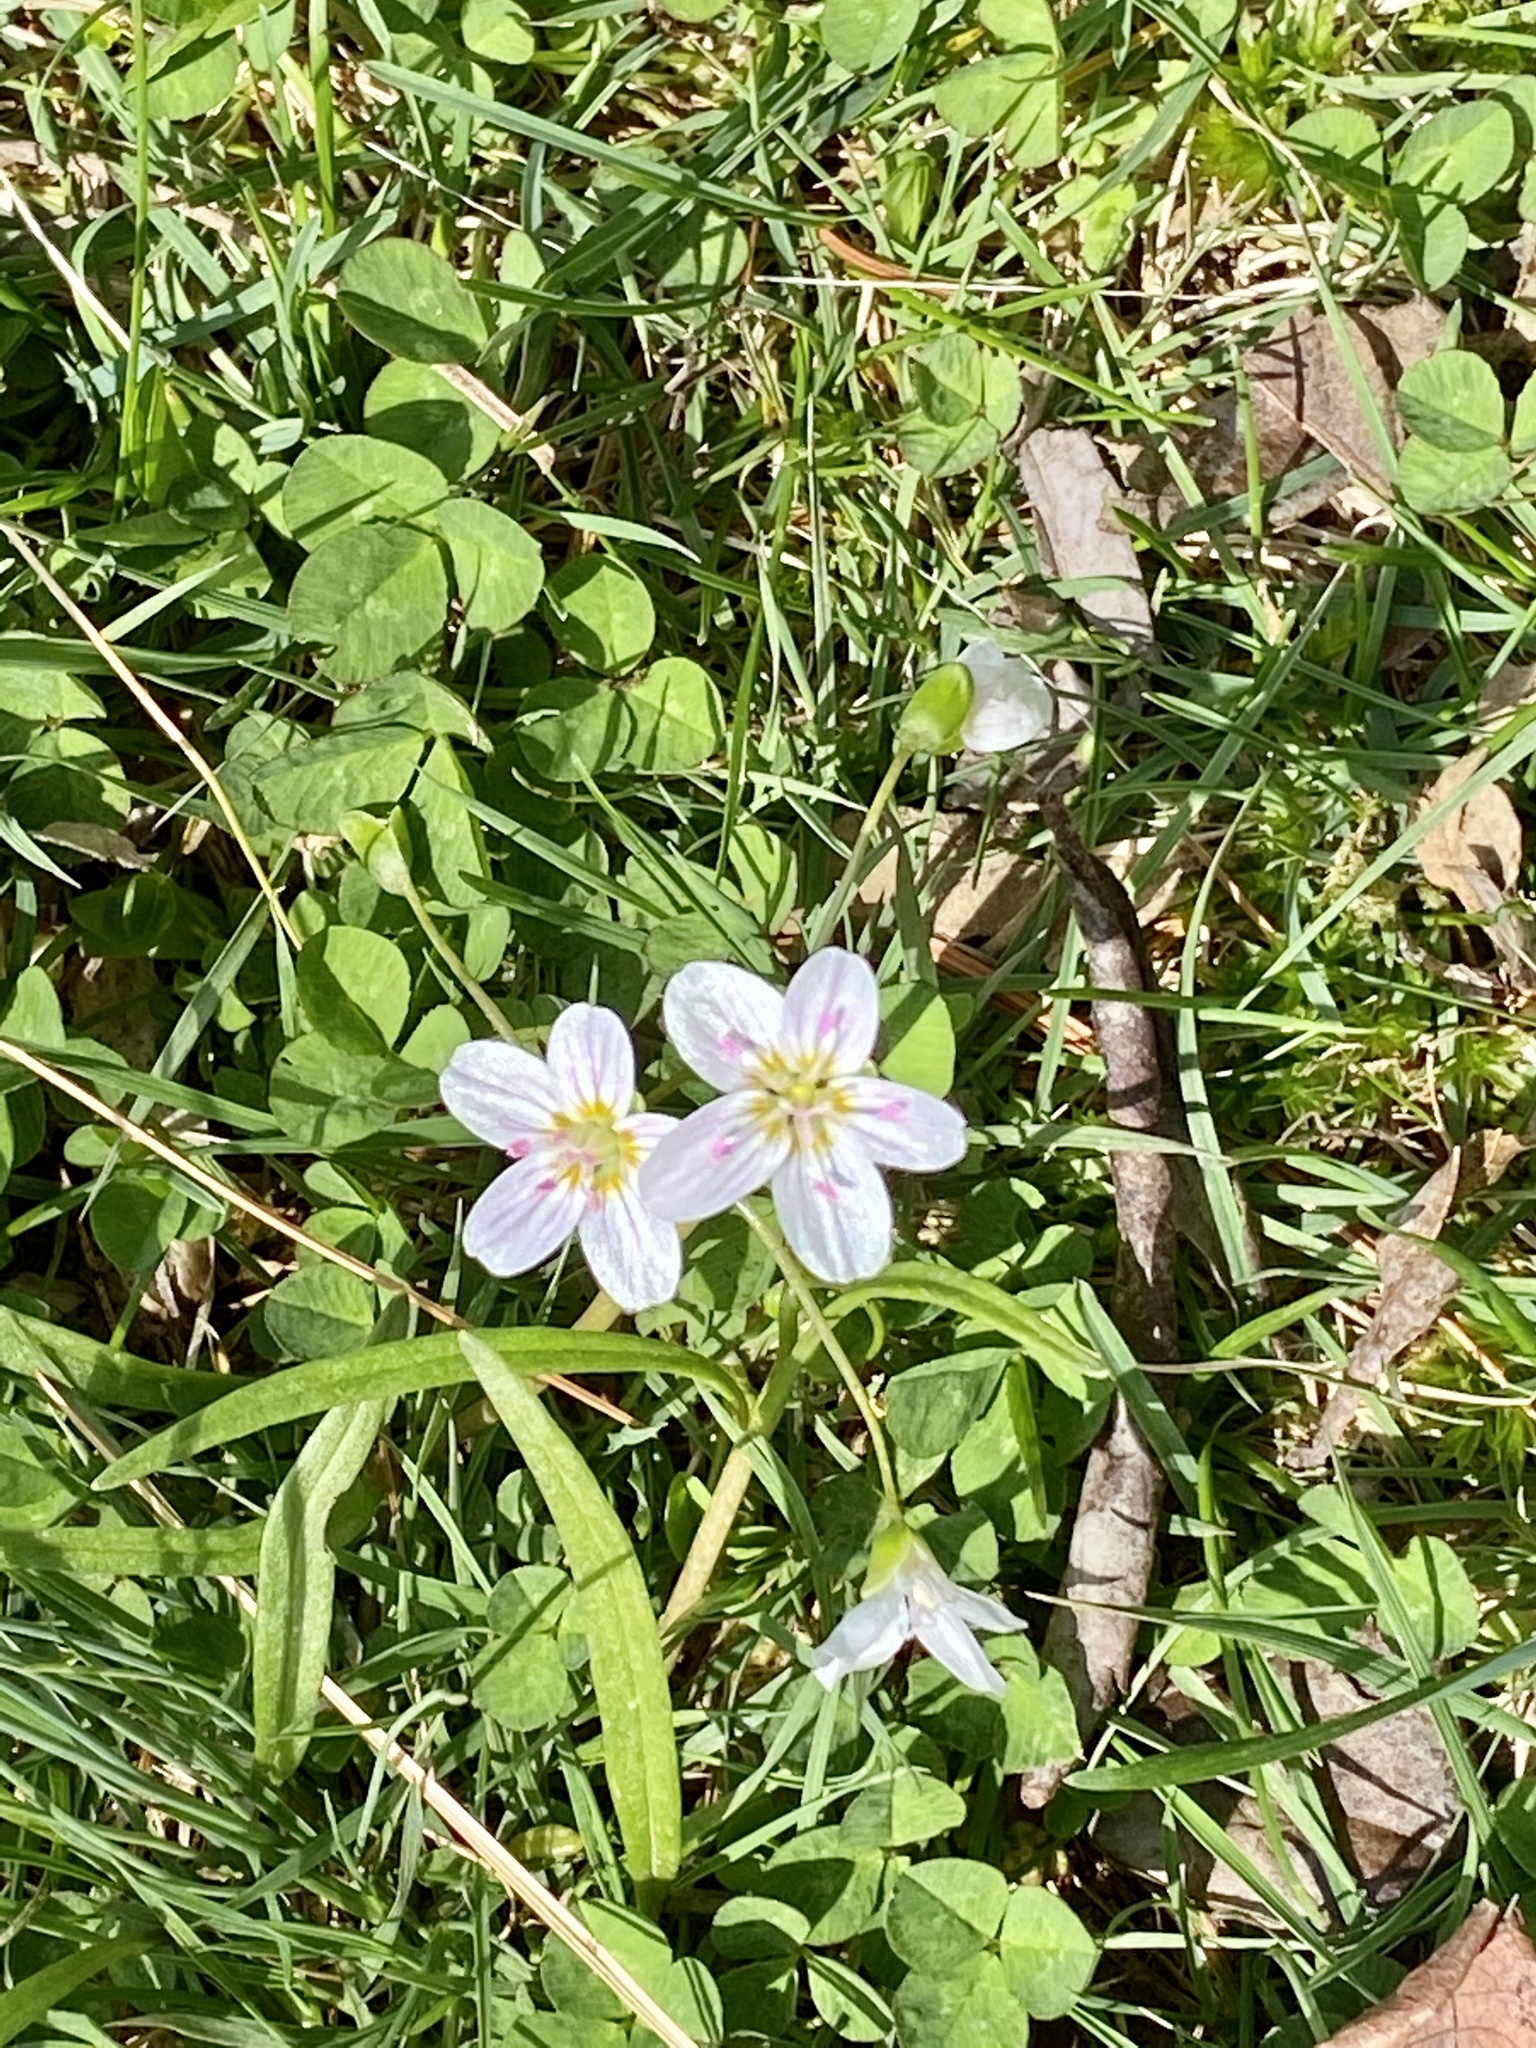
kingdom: Plantae
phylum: Tracheophyta
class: Magnoliopsida
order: Caryophyllales
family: Montiaceae
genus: Claytonia
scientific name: Claytonia virginica
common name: Virginia springbeauty
